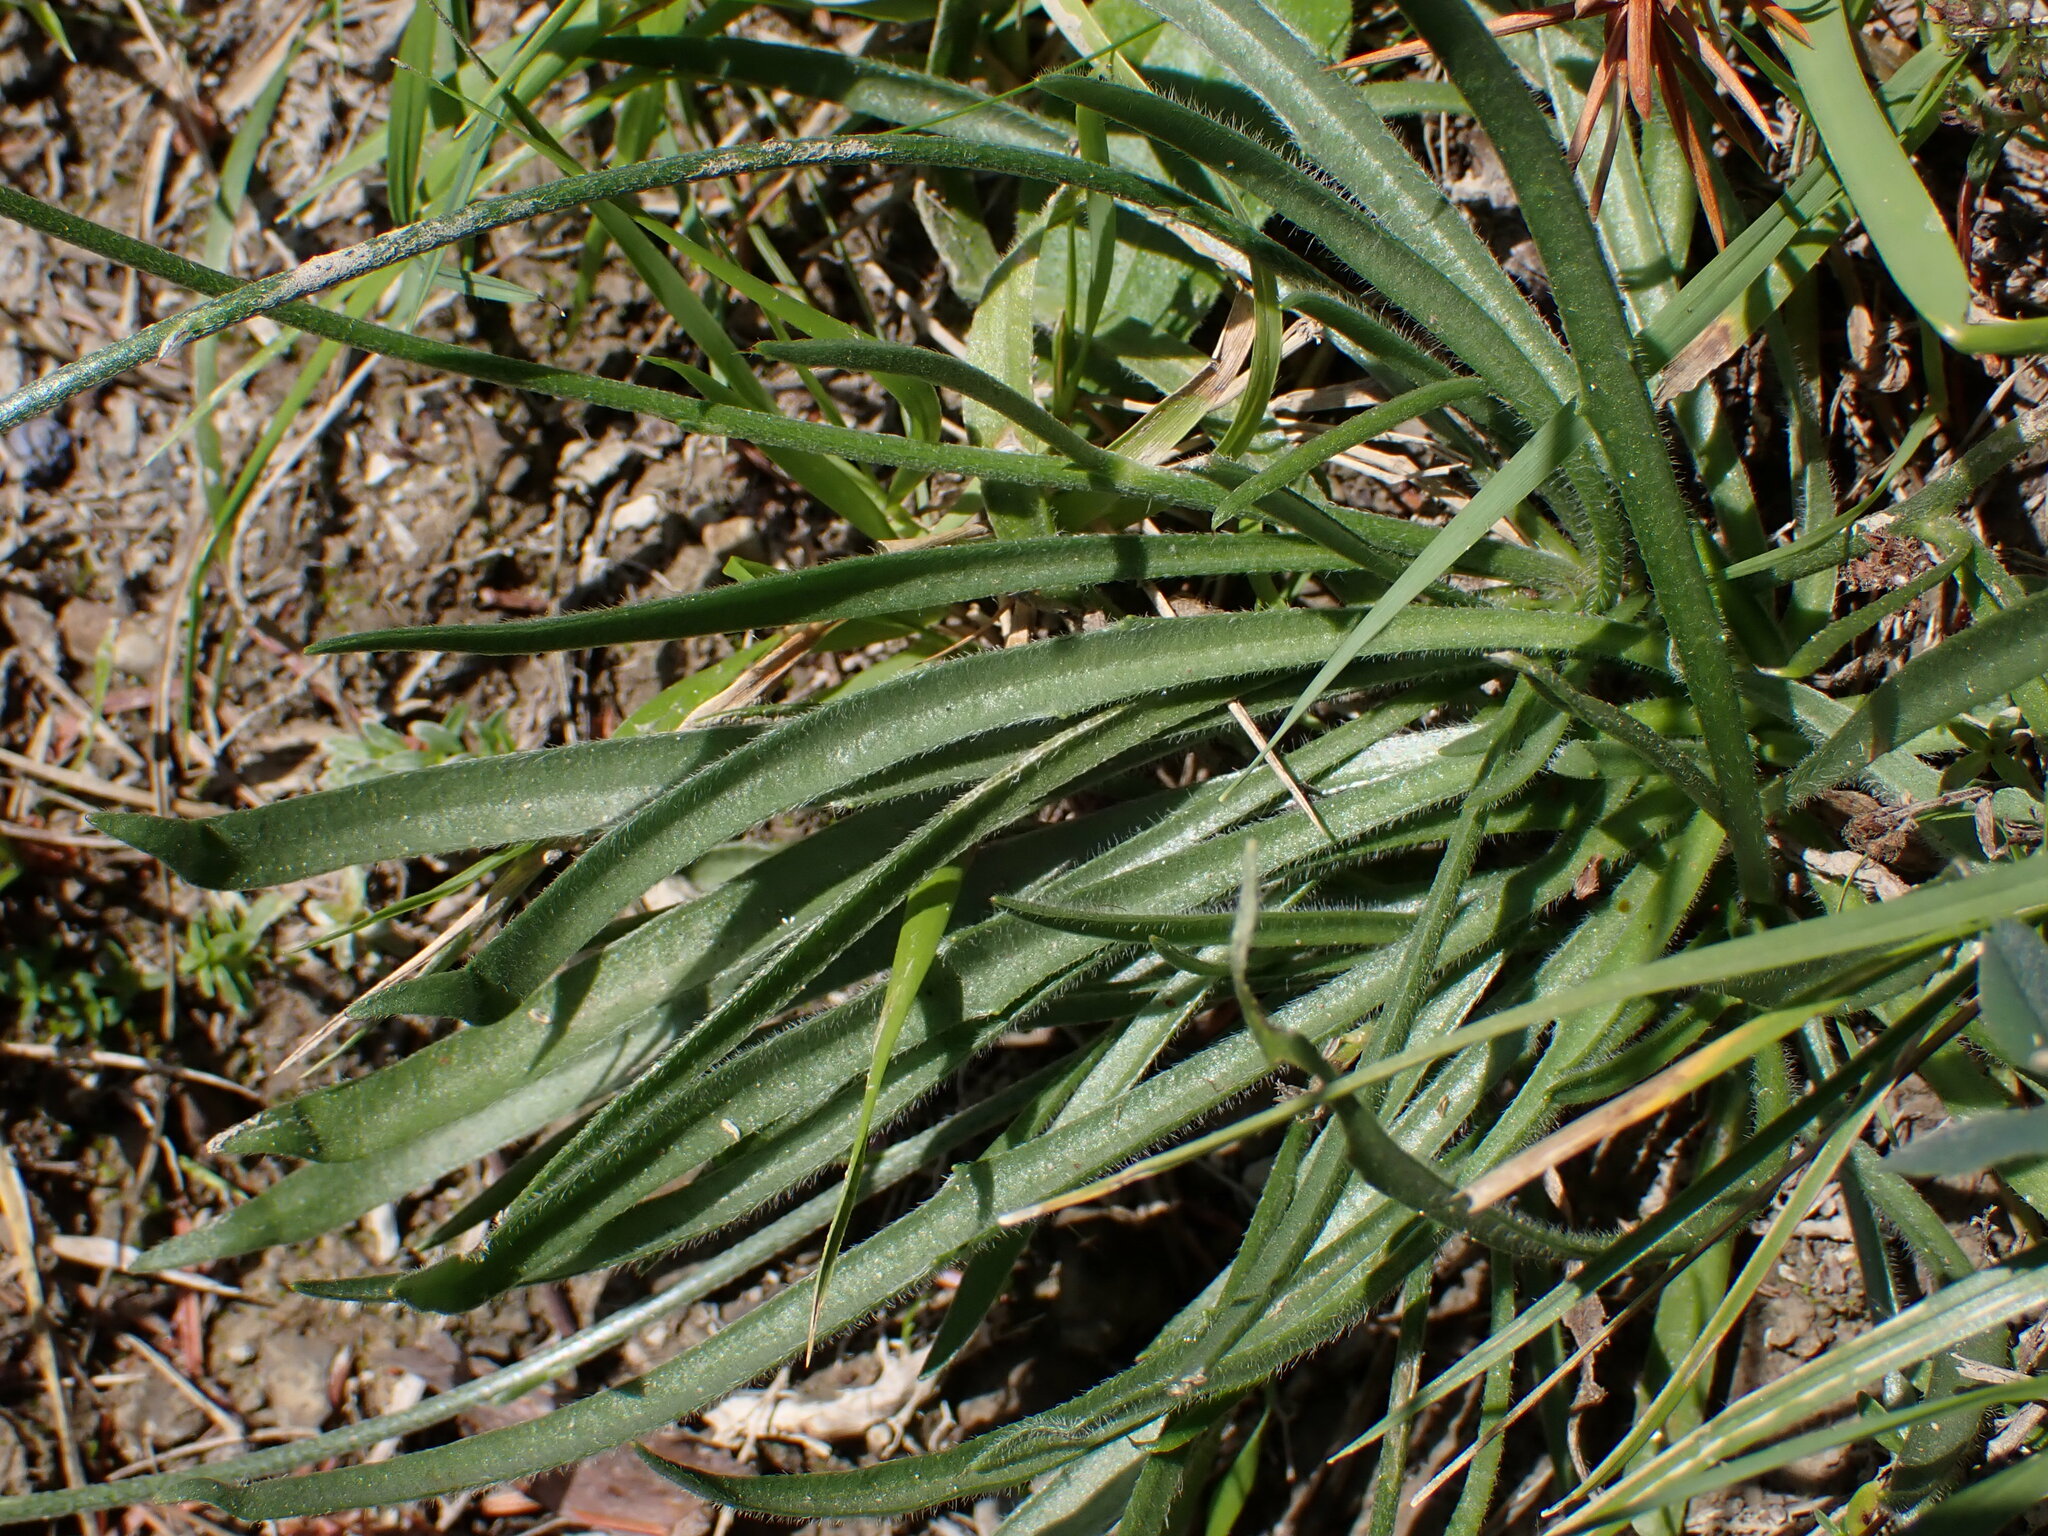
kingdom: Plantae
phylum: Tracheophyta
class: Magnoliopsida
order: Asterales
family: Asteraceae
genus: Catananche
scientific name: Catananche caerulea
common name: Blue cupidone
